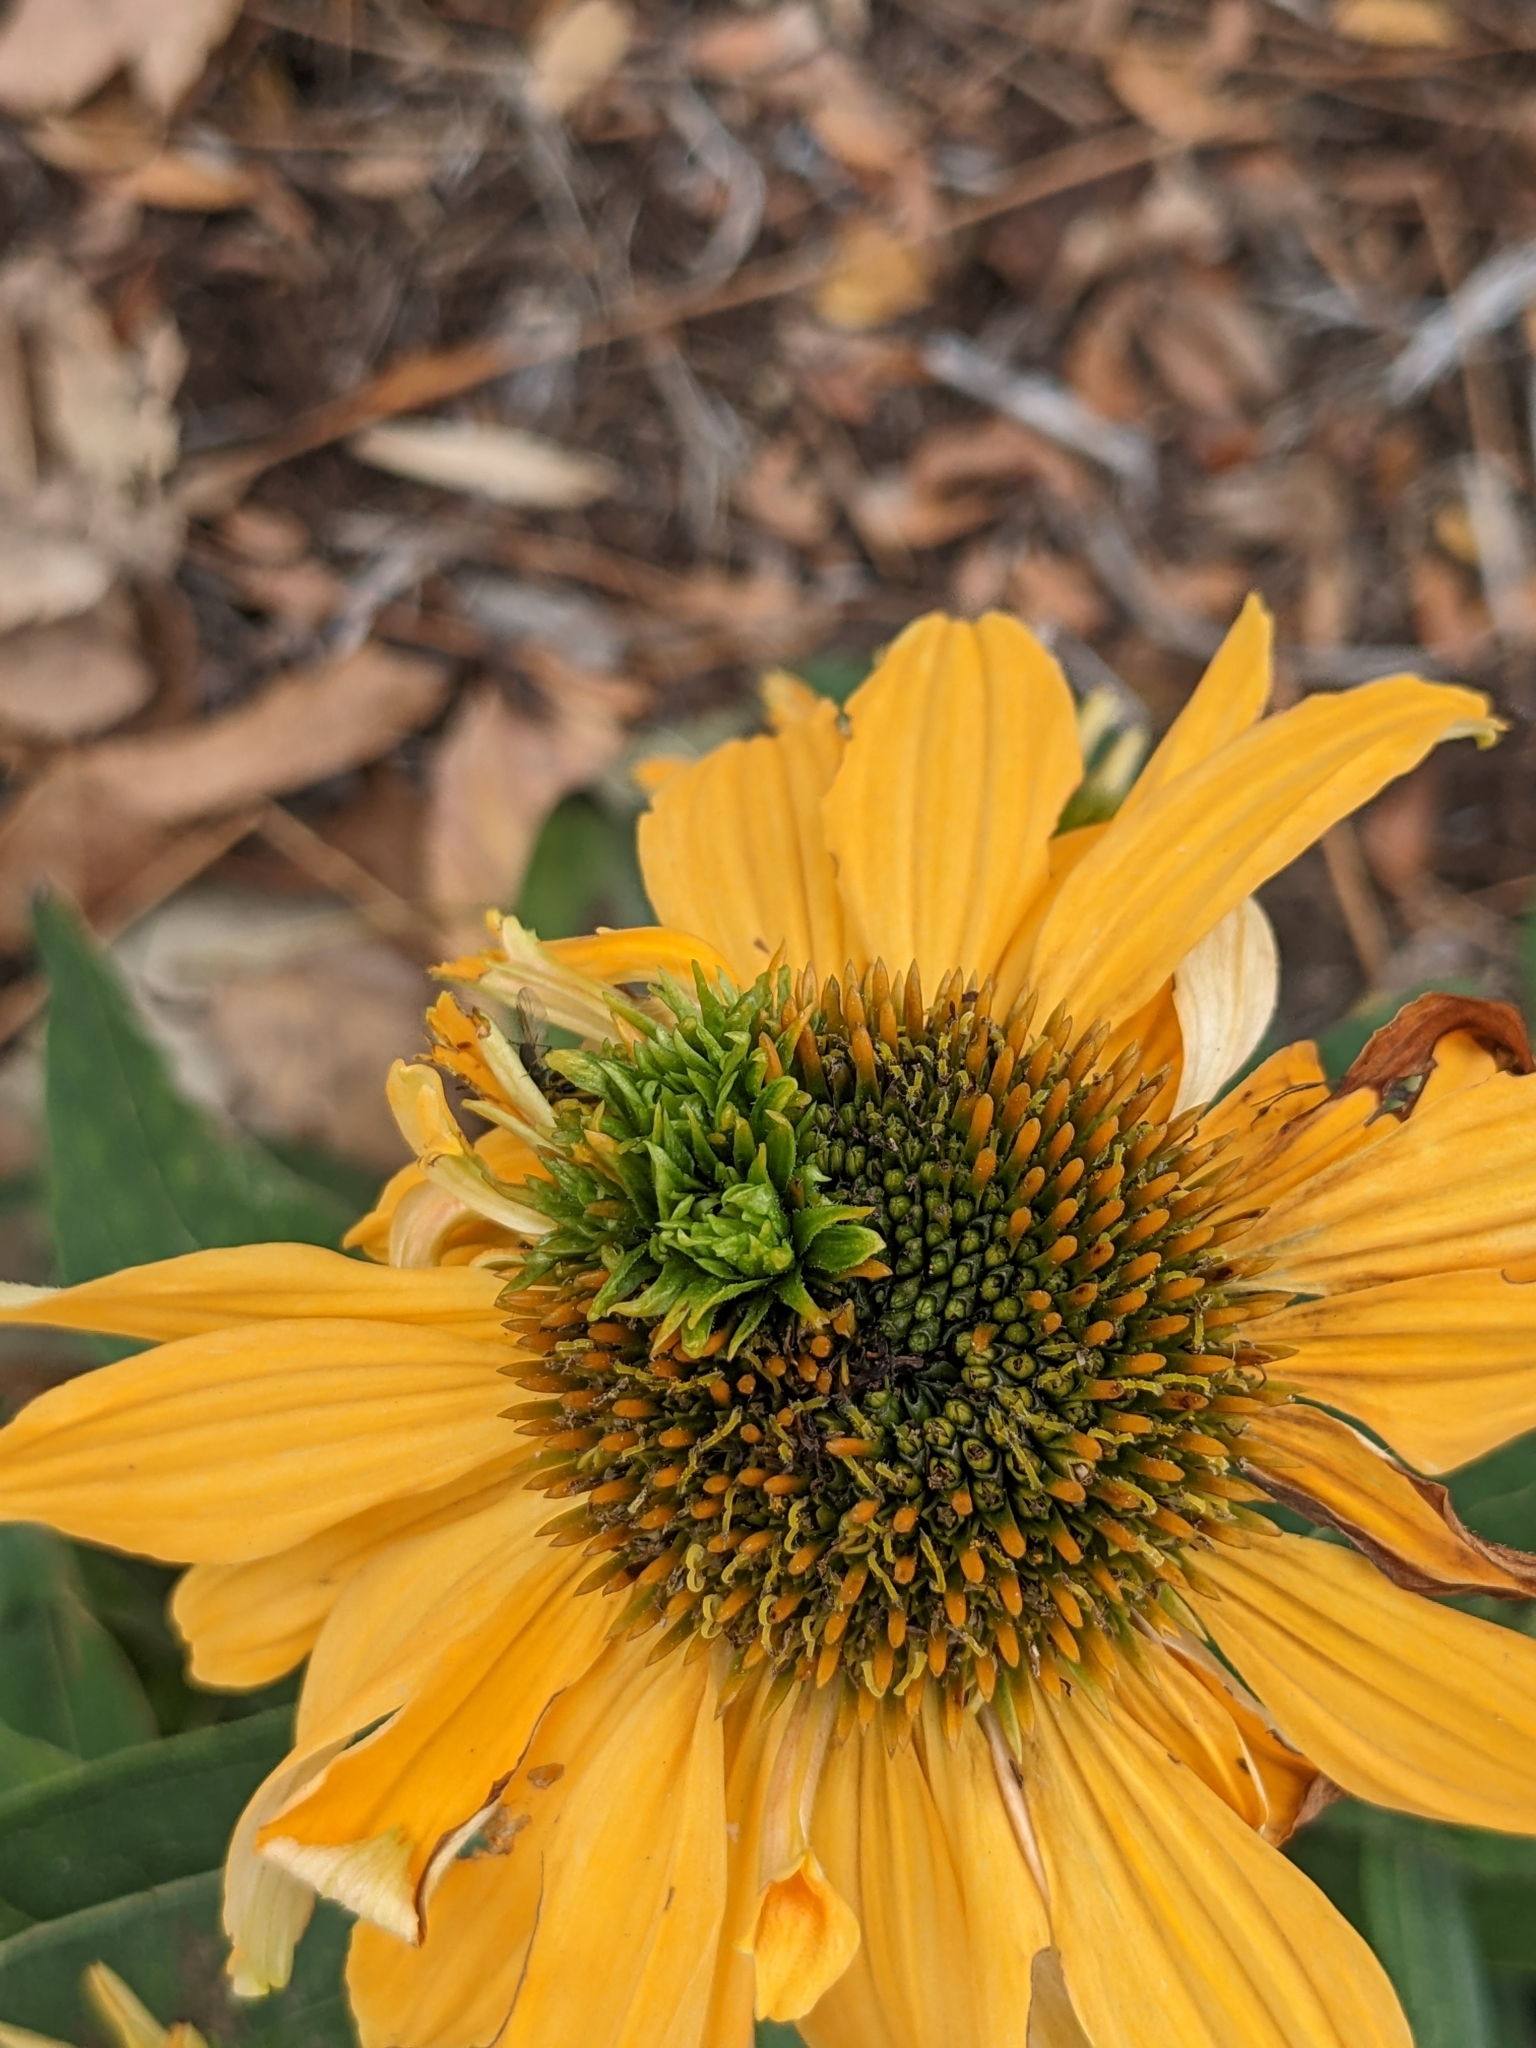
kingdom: Bacteria
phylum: Firmicutes
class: Bacilli
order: Acholeplasmatales
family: Acholeplasmataceae
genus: Phytoplasma
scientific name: Phytoplasma
